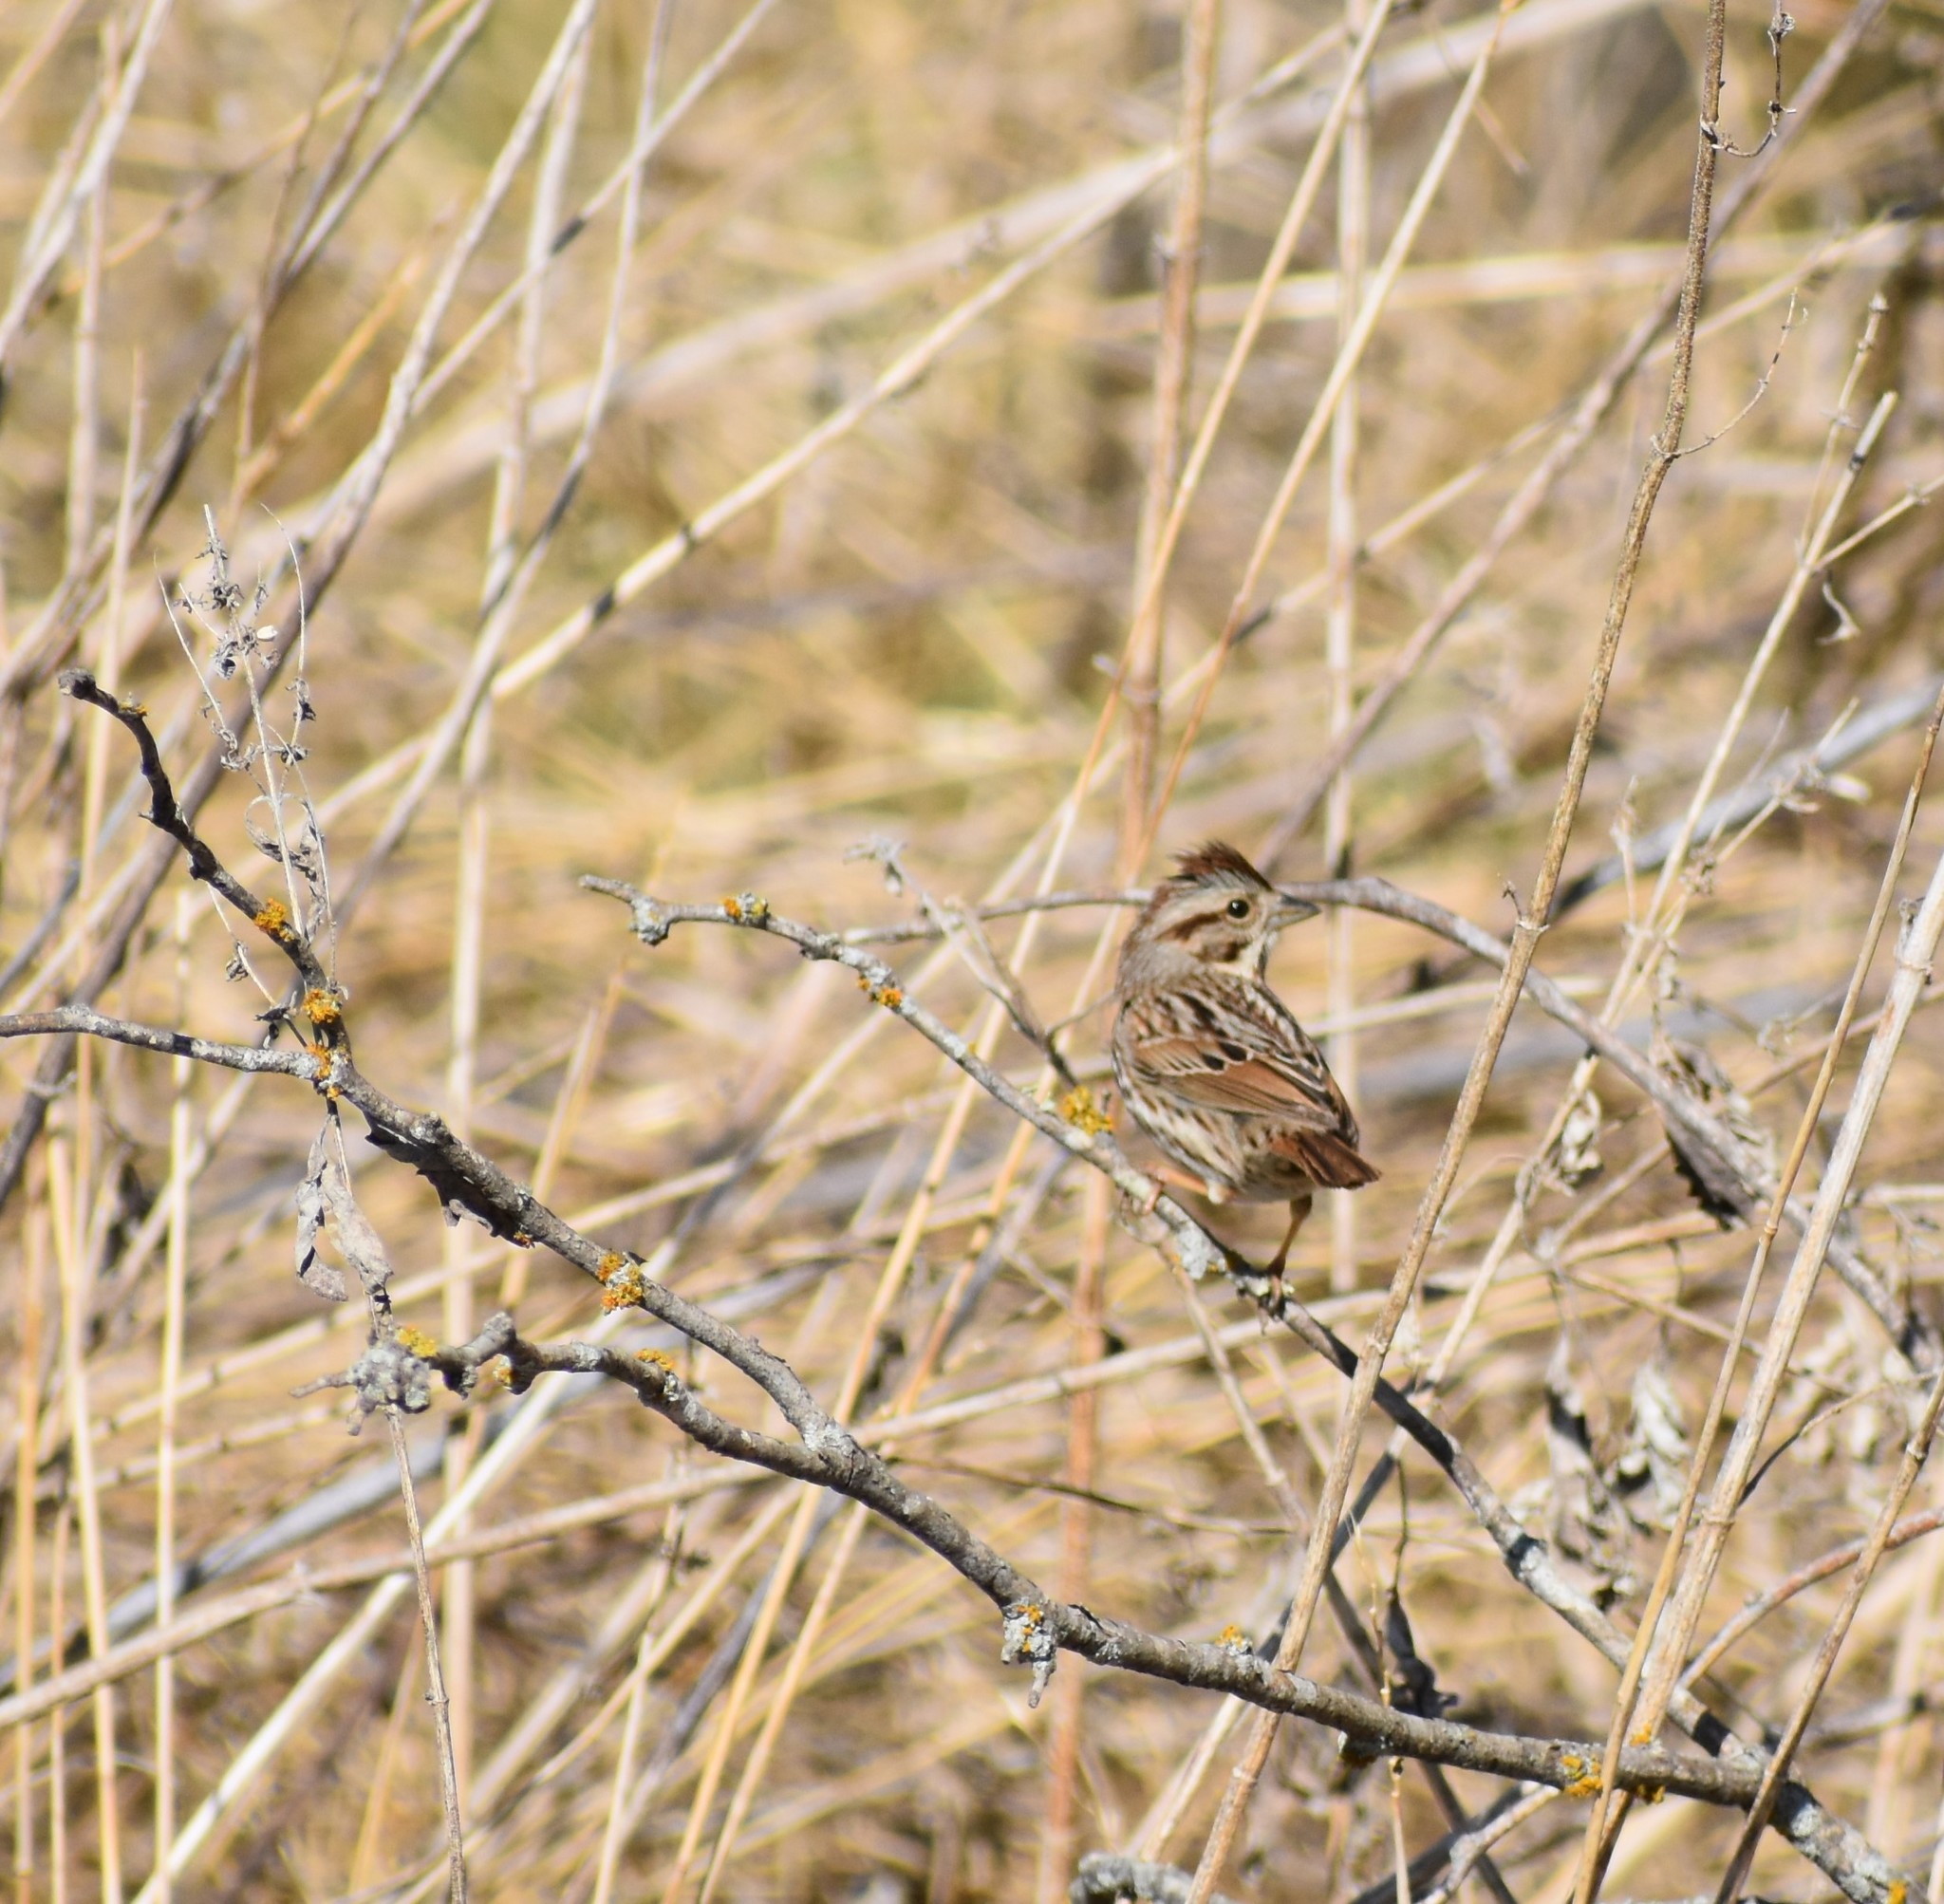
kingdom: Animalia
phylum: Chordata
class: Aves
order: Passeriformes
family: Passerellidae
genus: Melospiza
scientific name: Melospiza melodia
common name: Song sparrow
